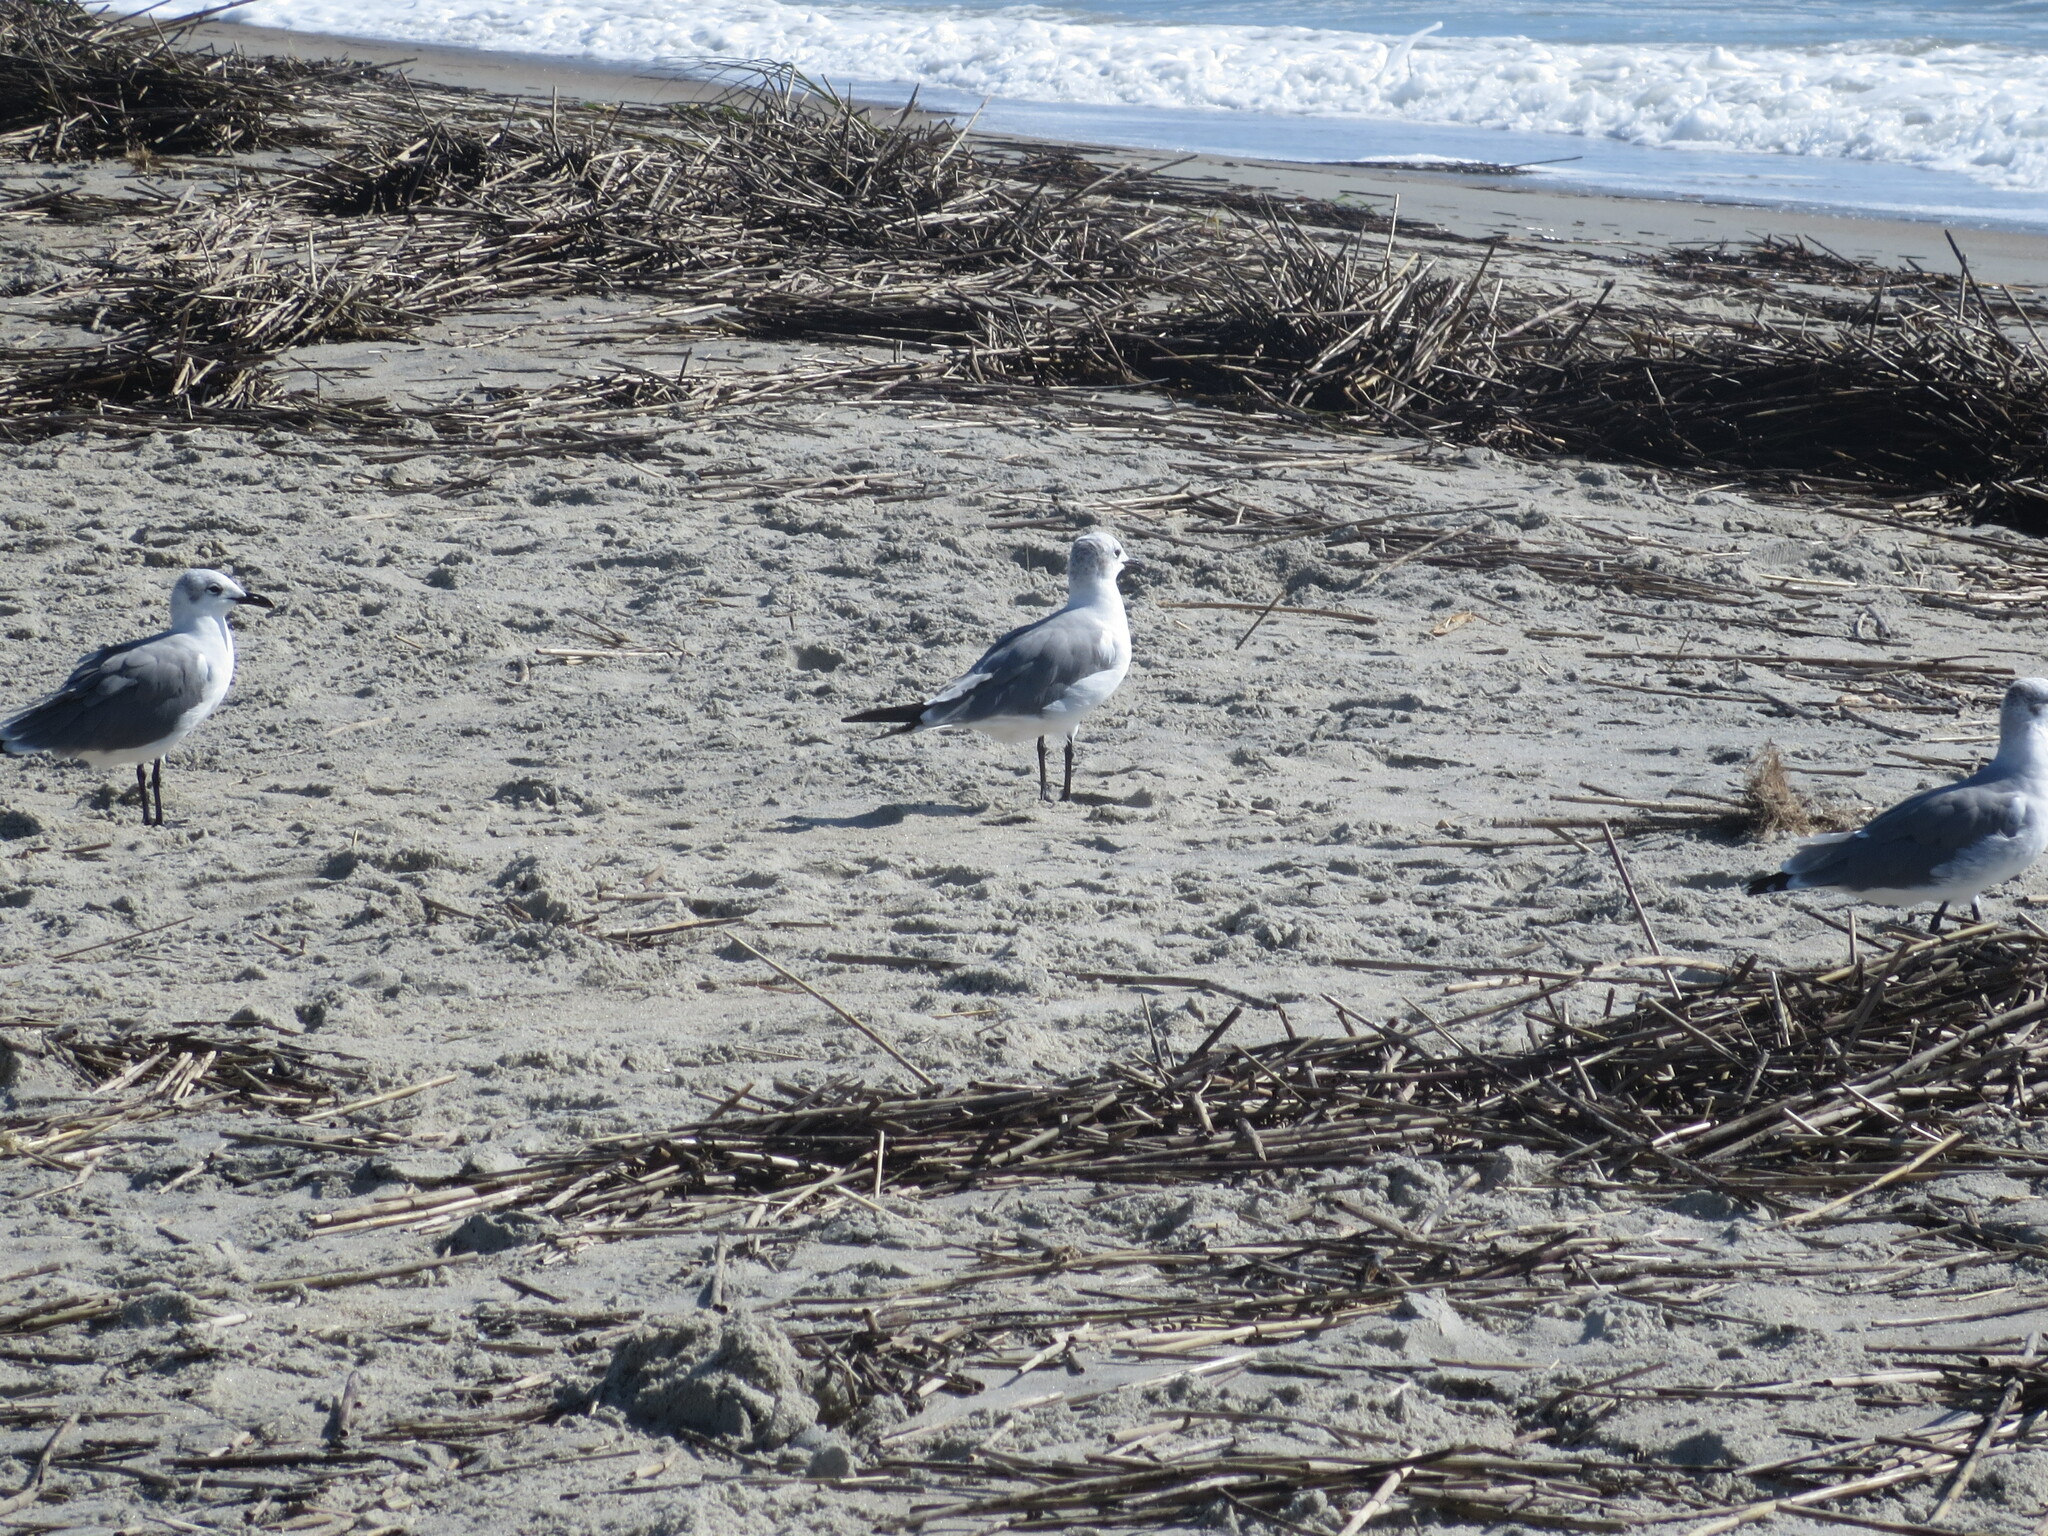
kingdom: Animalia
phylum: Chordata
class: Aves
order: Charadriiformes
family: Laridae
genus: Leucophaeus
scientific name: Leucophaeus atricilla
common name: Laughing gull
